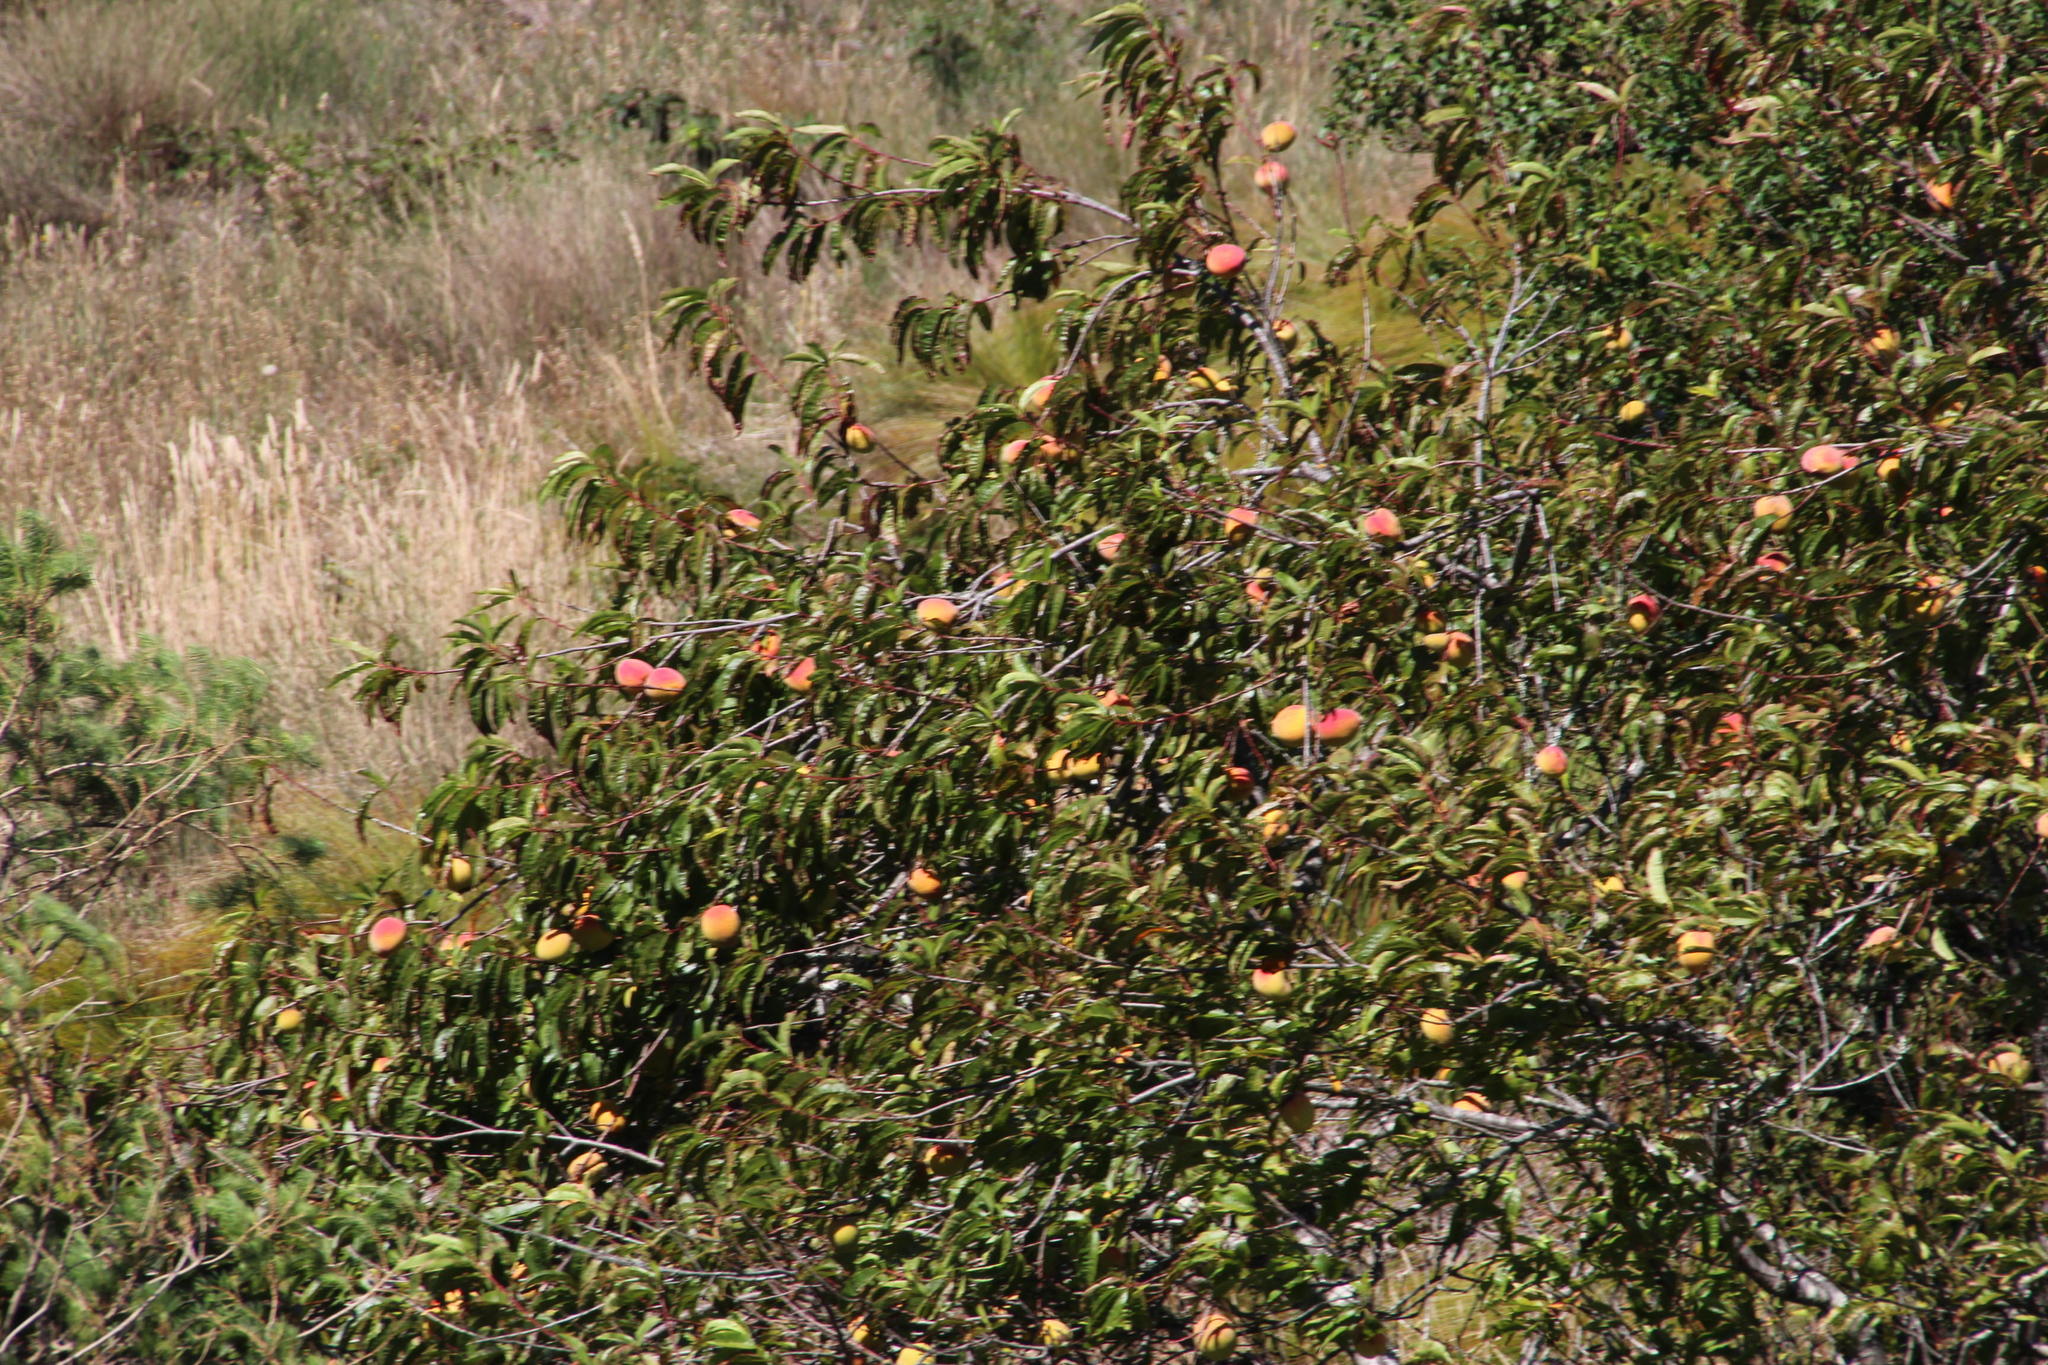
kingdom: Plantae
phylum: Tracheophyta
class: Magnoliopsida
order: Rosales
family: Rosaceae
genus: Prunus
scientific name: Prunus persica
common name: Peach
